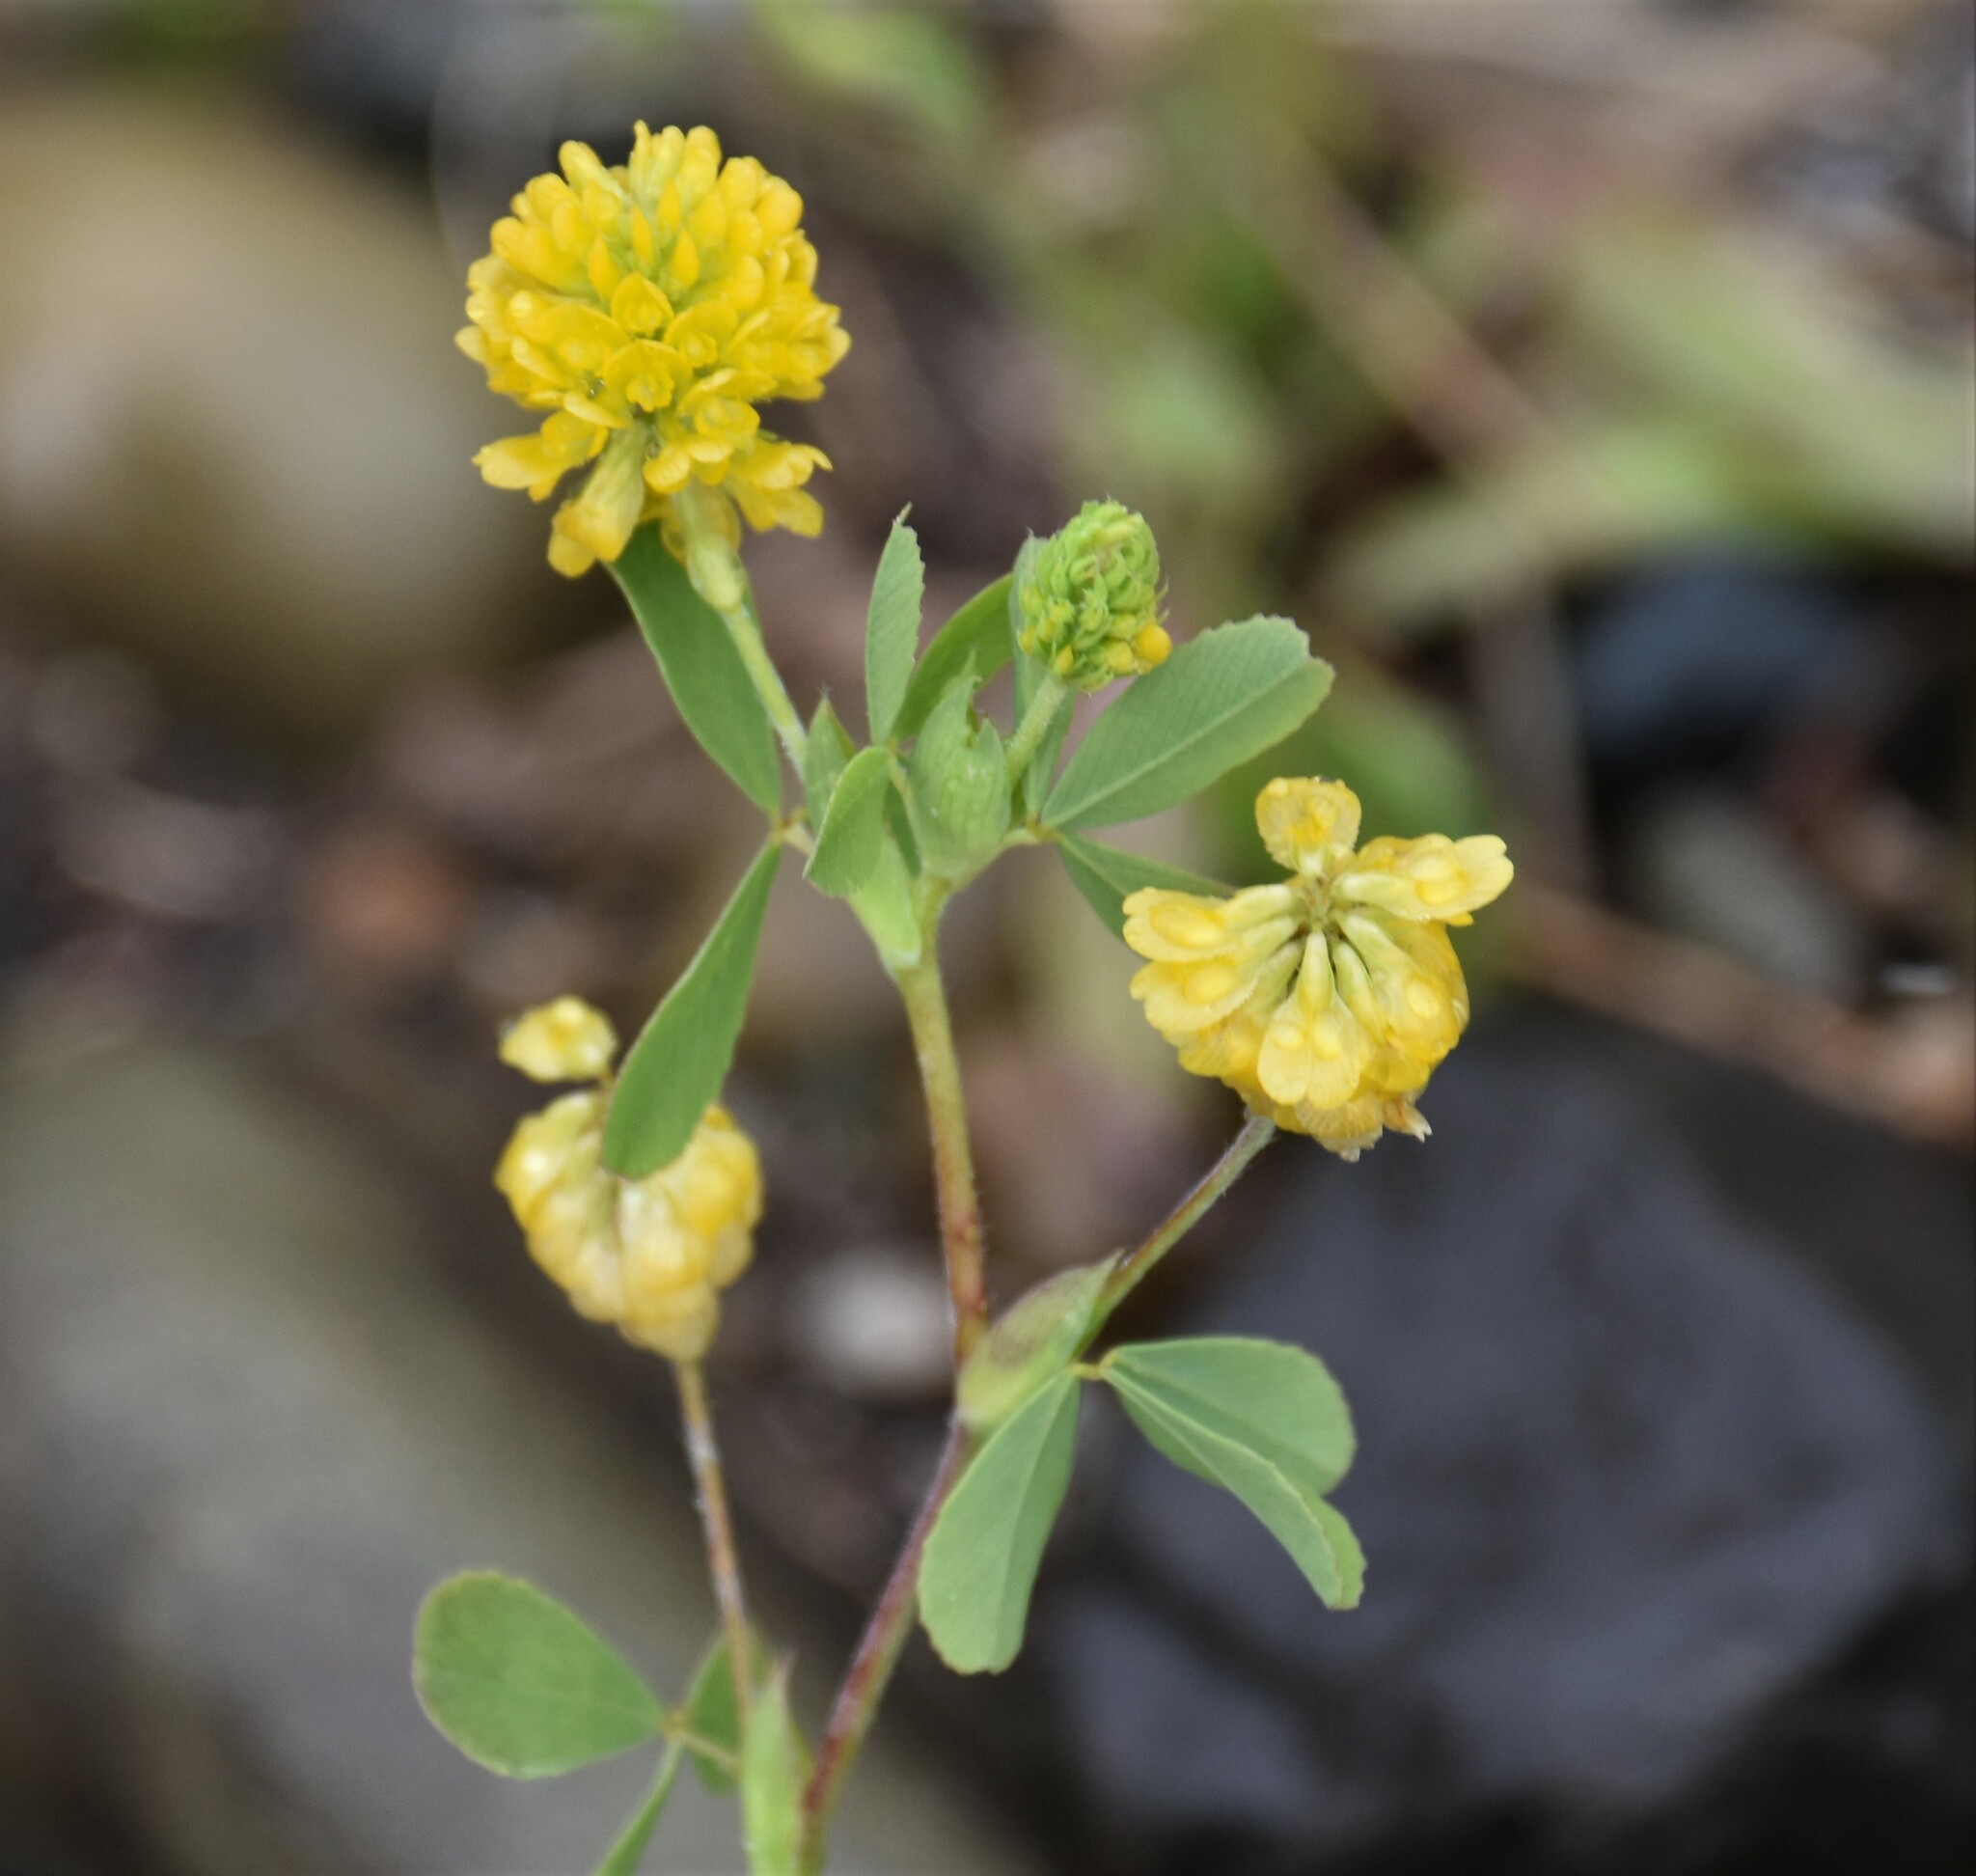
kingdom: Plantae
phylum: Tracheophyta
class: Magnoliopsida
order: Fabales
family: Fabaceae
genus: Trifolium
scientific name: Trifolium aureum
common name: Golden clover
